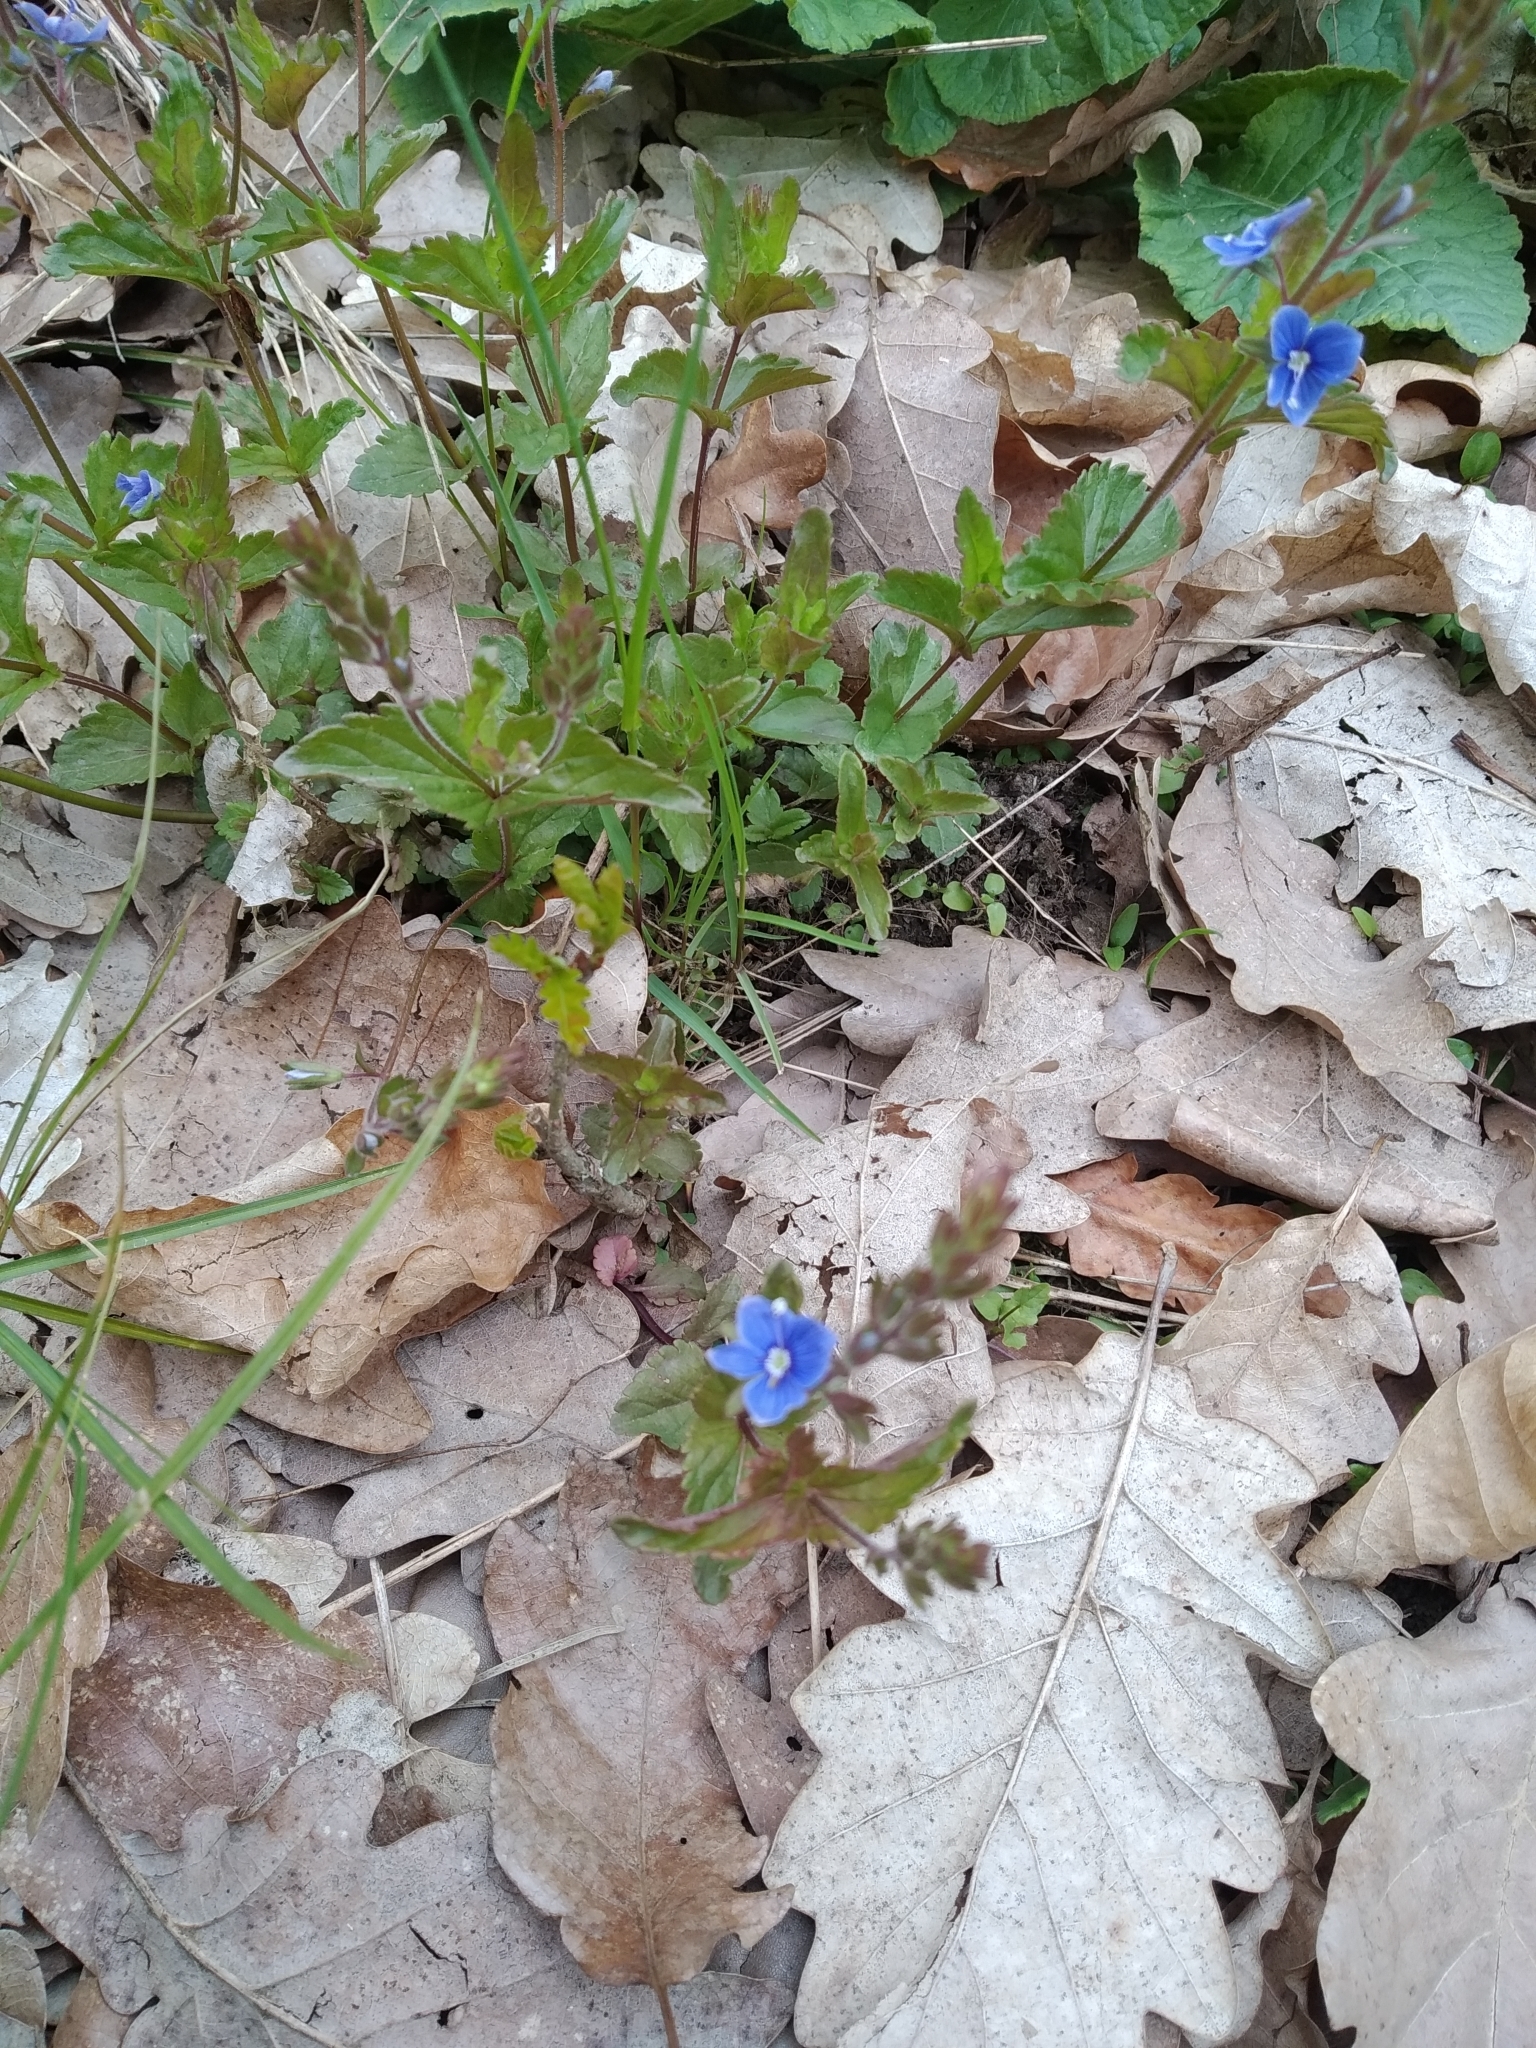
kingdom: Plantae
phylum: Tracheophyta
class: Magnoliopsida
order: Lamiales
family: Plantaginaceae
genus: Veronica
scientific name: Veronica chamaedrys
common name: Germander speedwell
